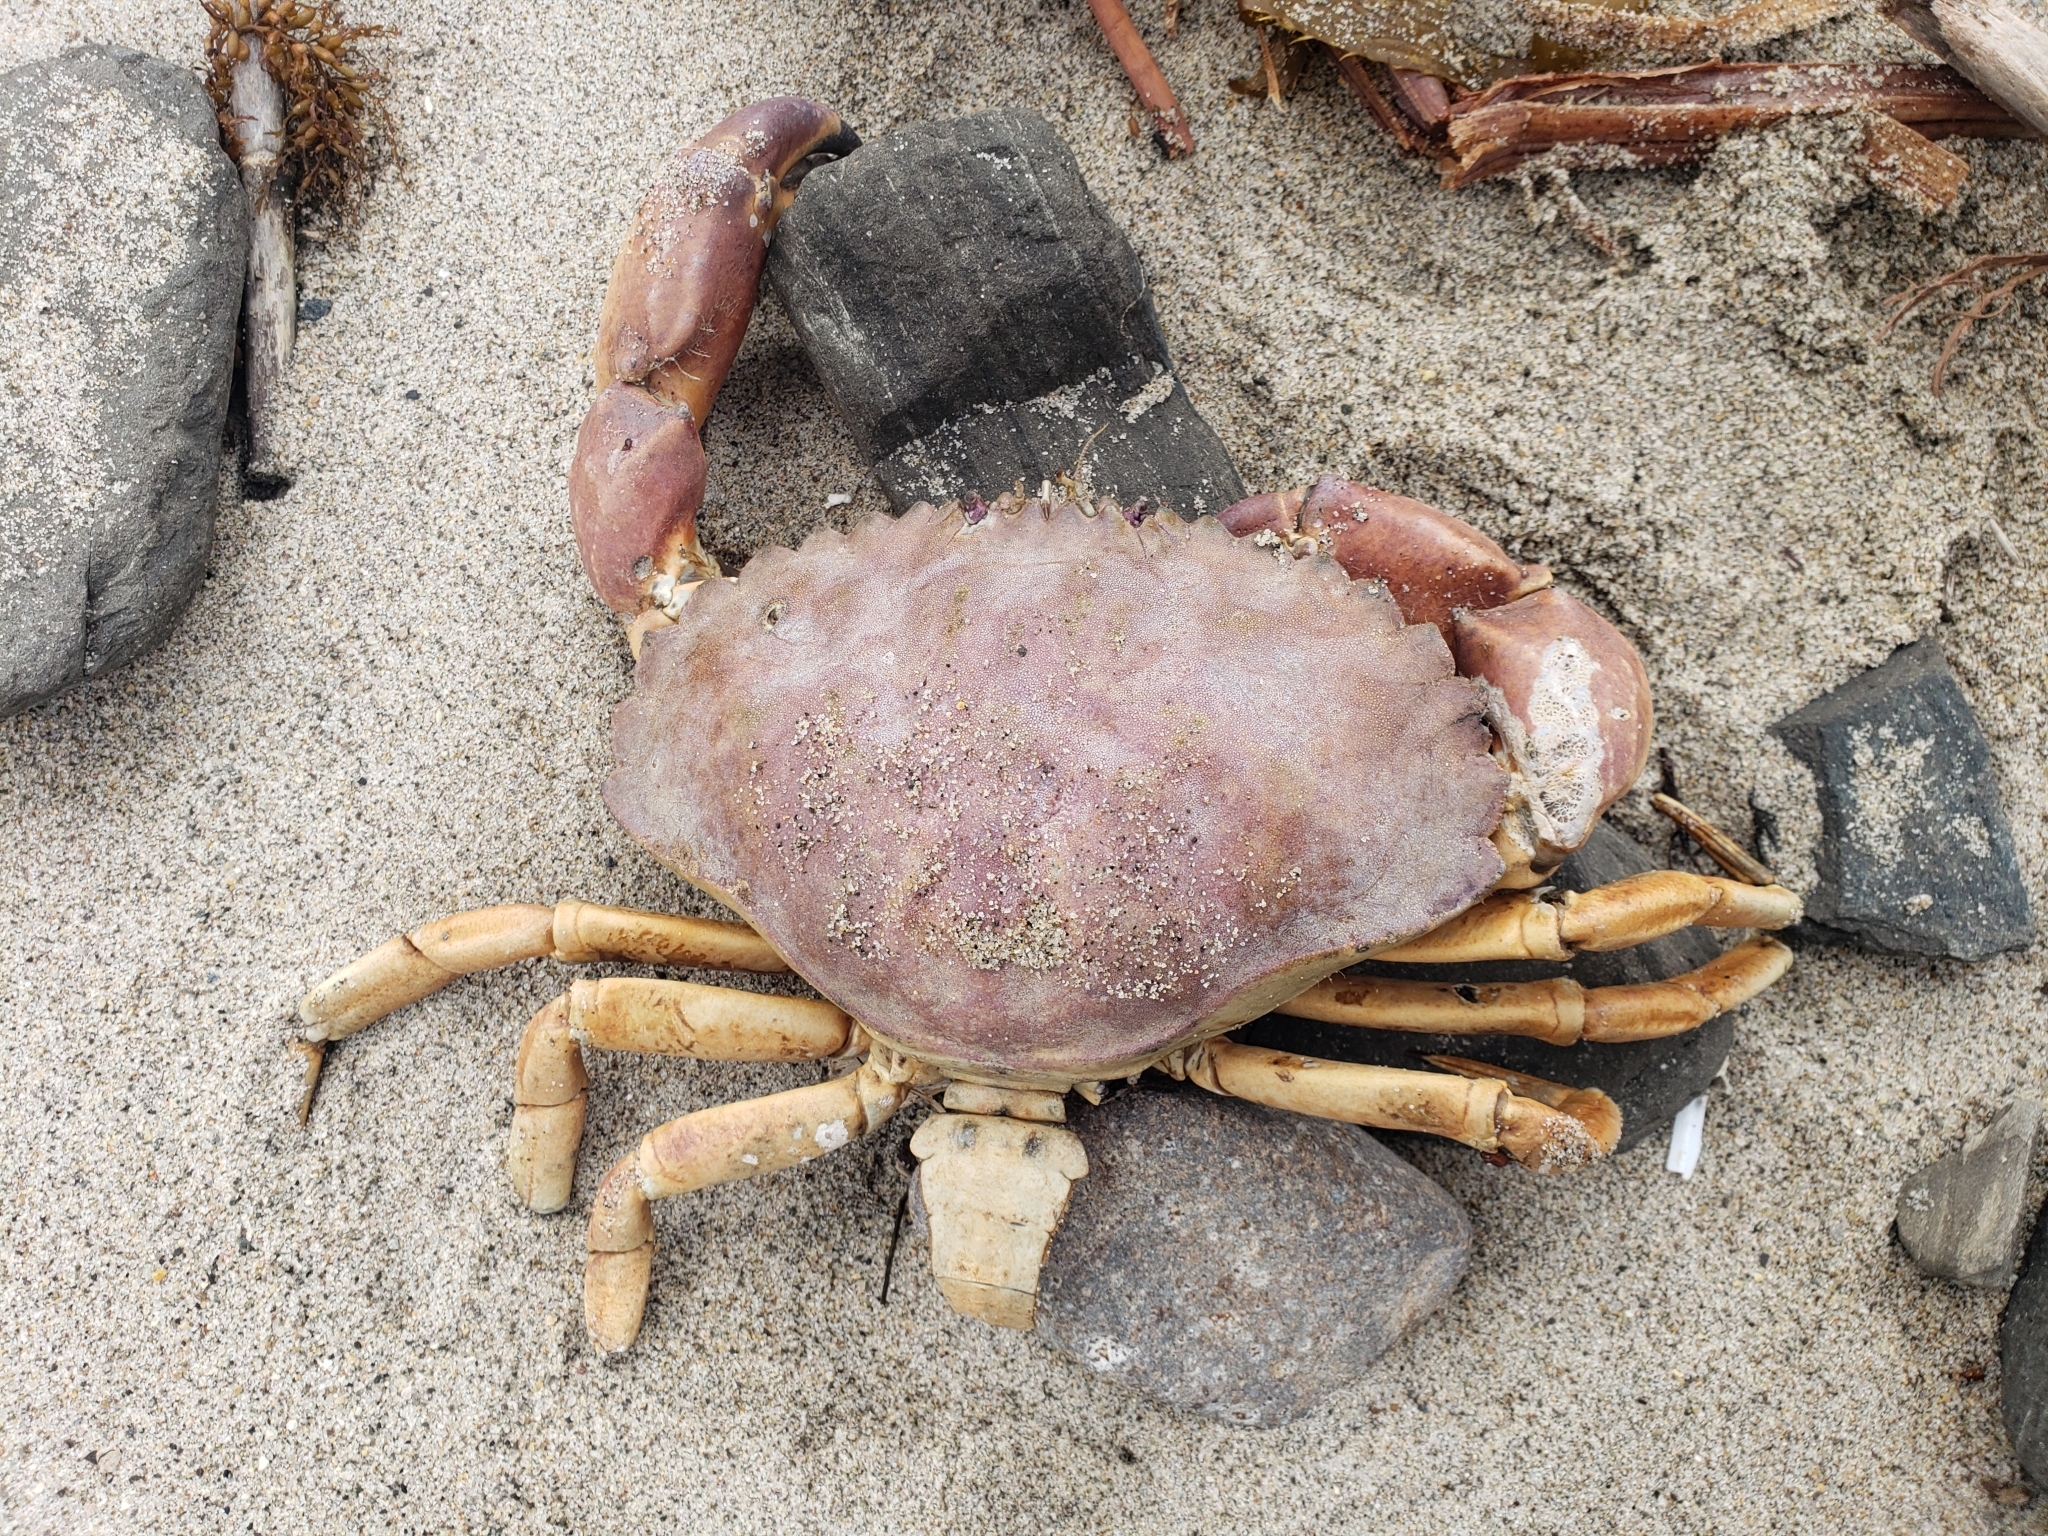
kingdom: Animalia
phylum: Arthropoda
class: Malacostraca
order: Decapoda
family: Cancridae
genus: Metacarcinus
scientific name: Metacarcinus anthonyi
